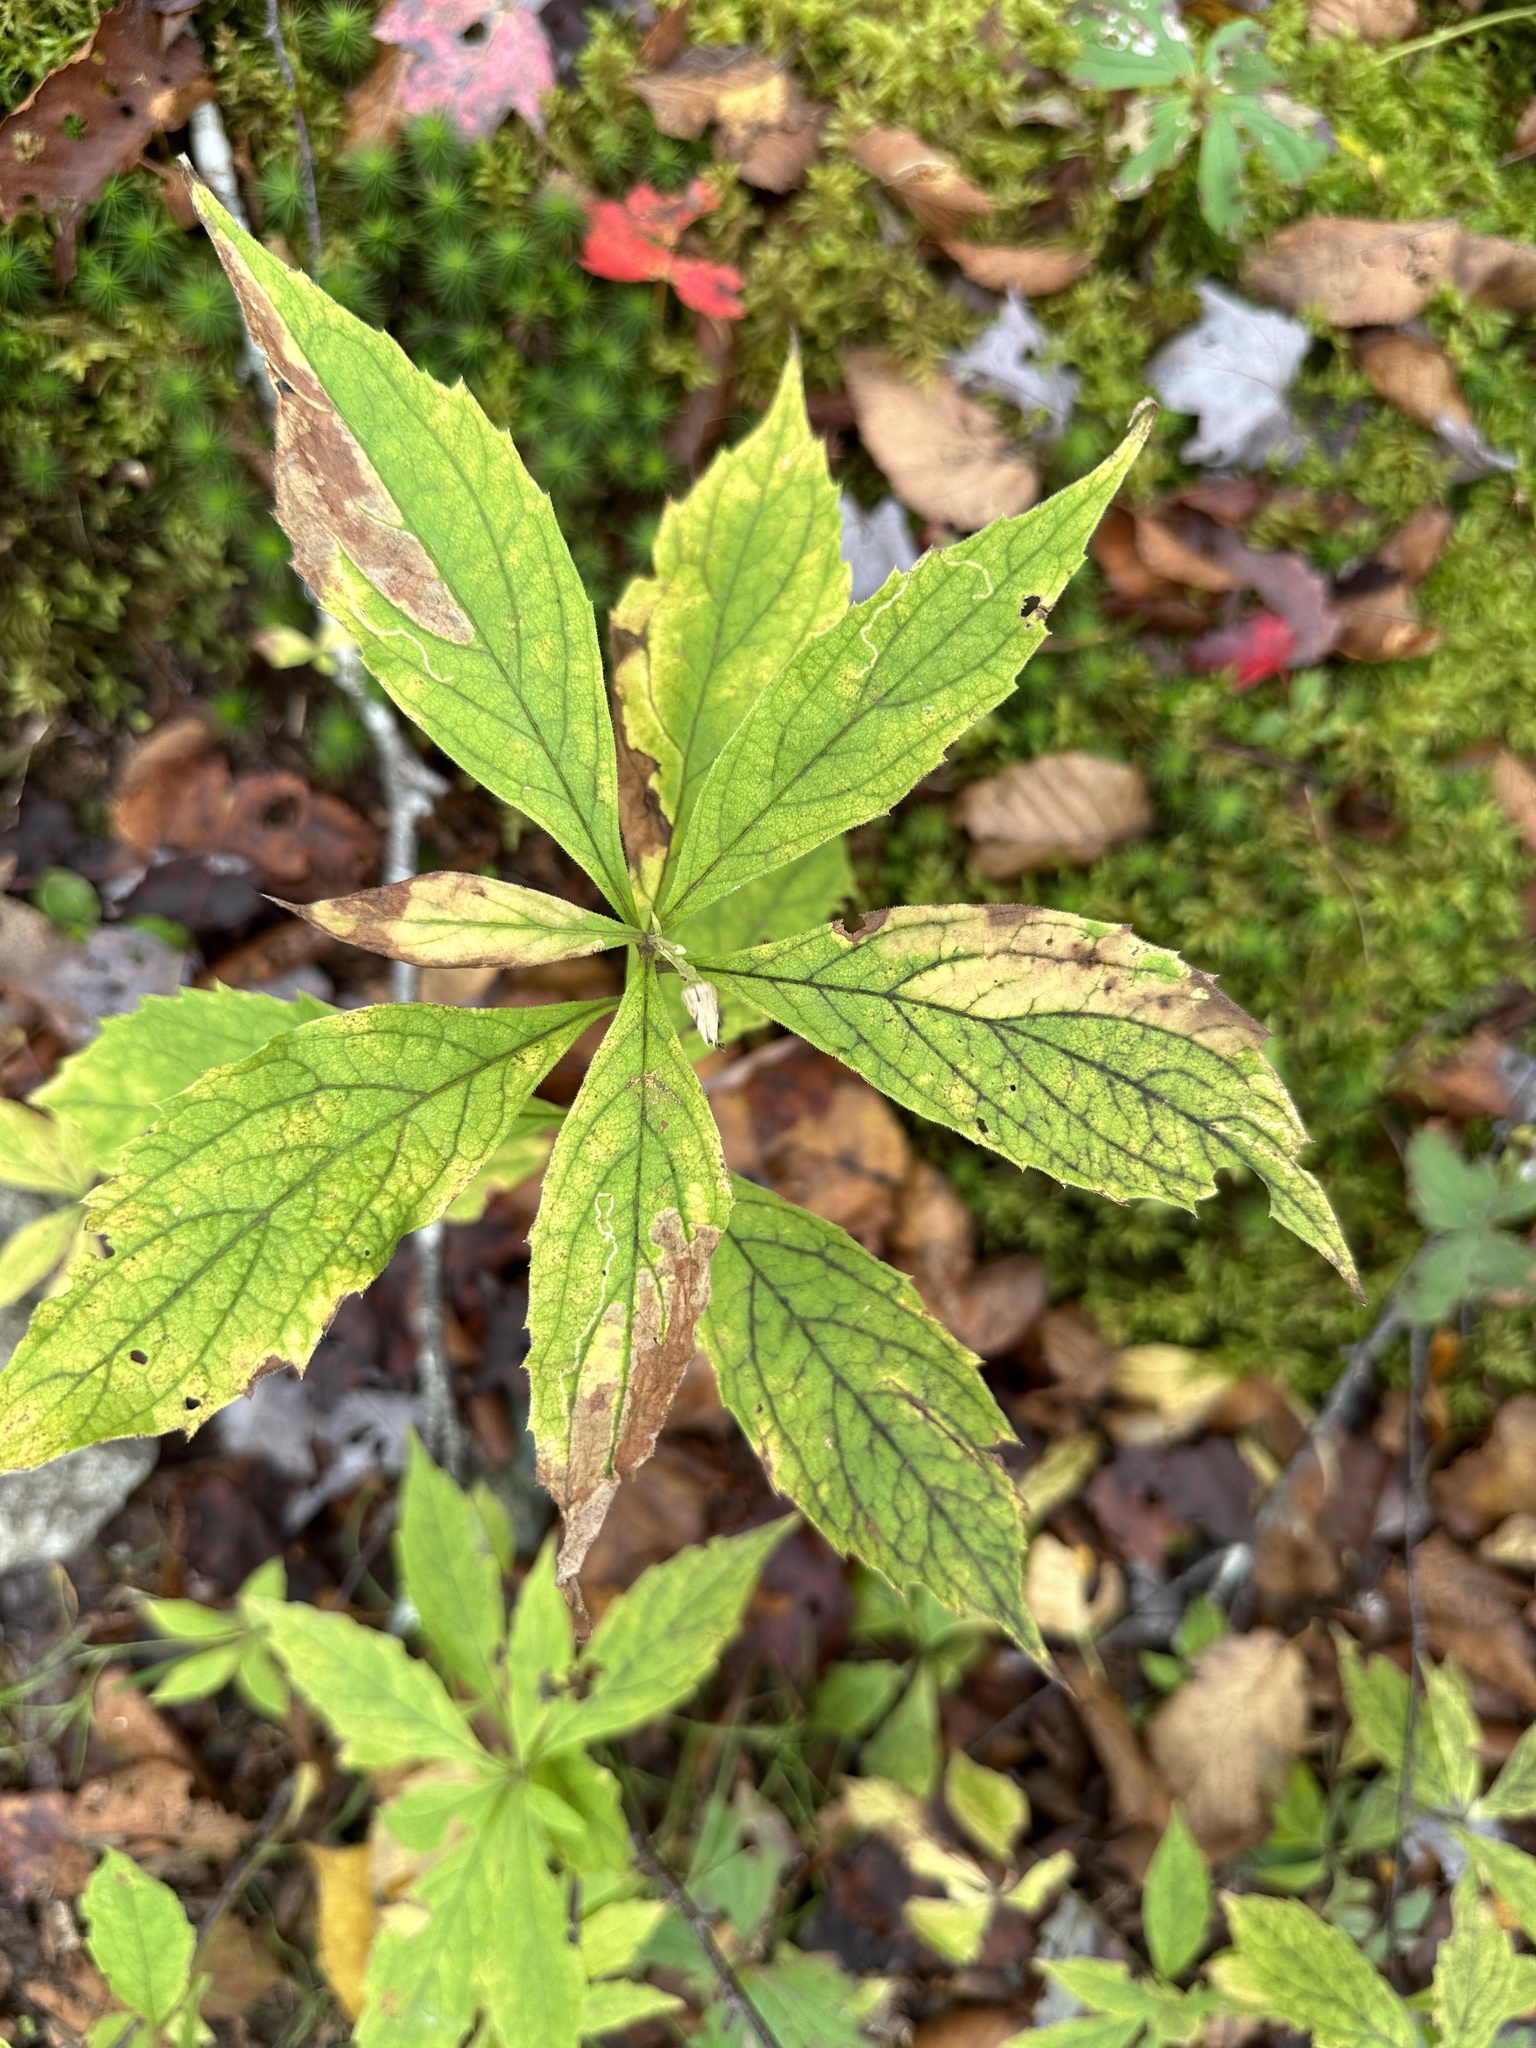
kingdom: Plantae
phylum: Tracheophyta
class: Magnoliopsida
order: Asterales
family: Asteraceae
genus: Oclemena
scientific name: Oclemena acuminata
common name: Mountain aster
